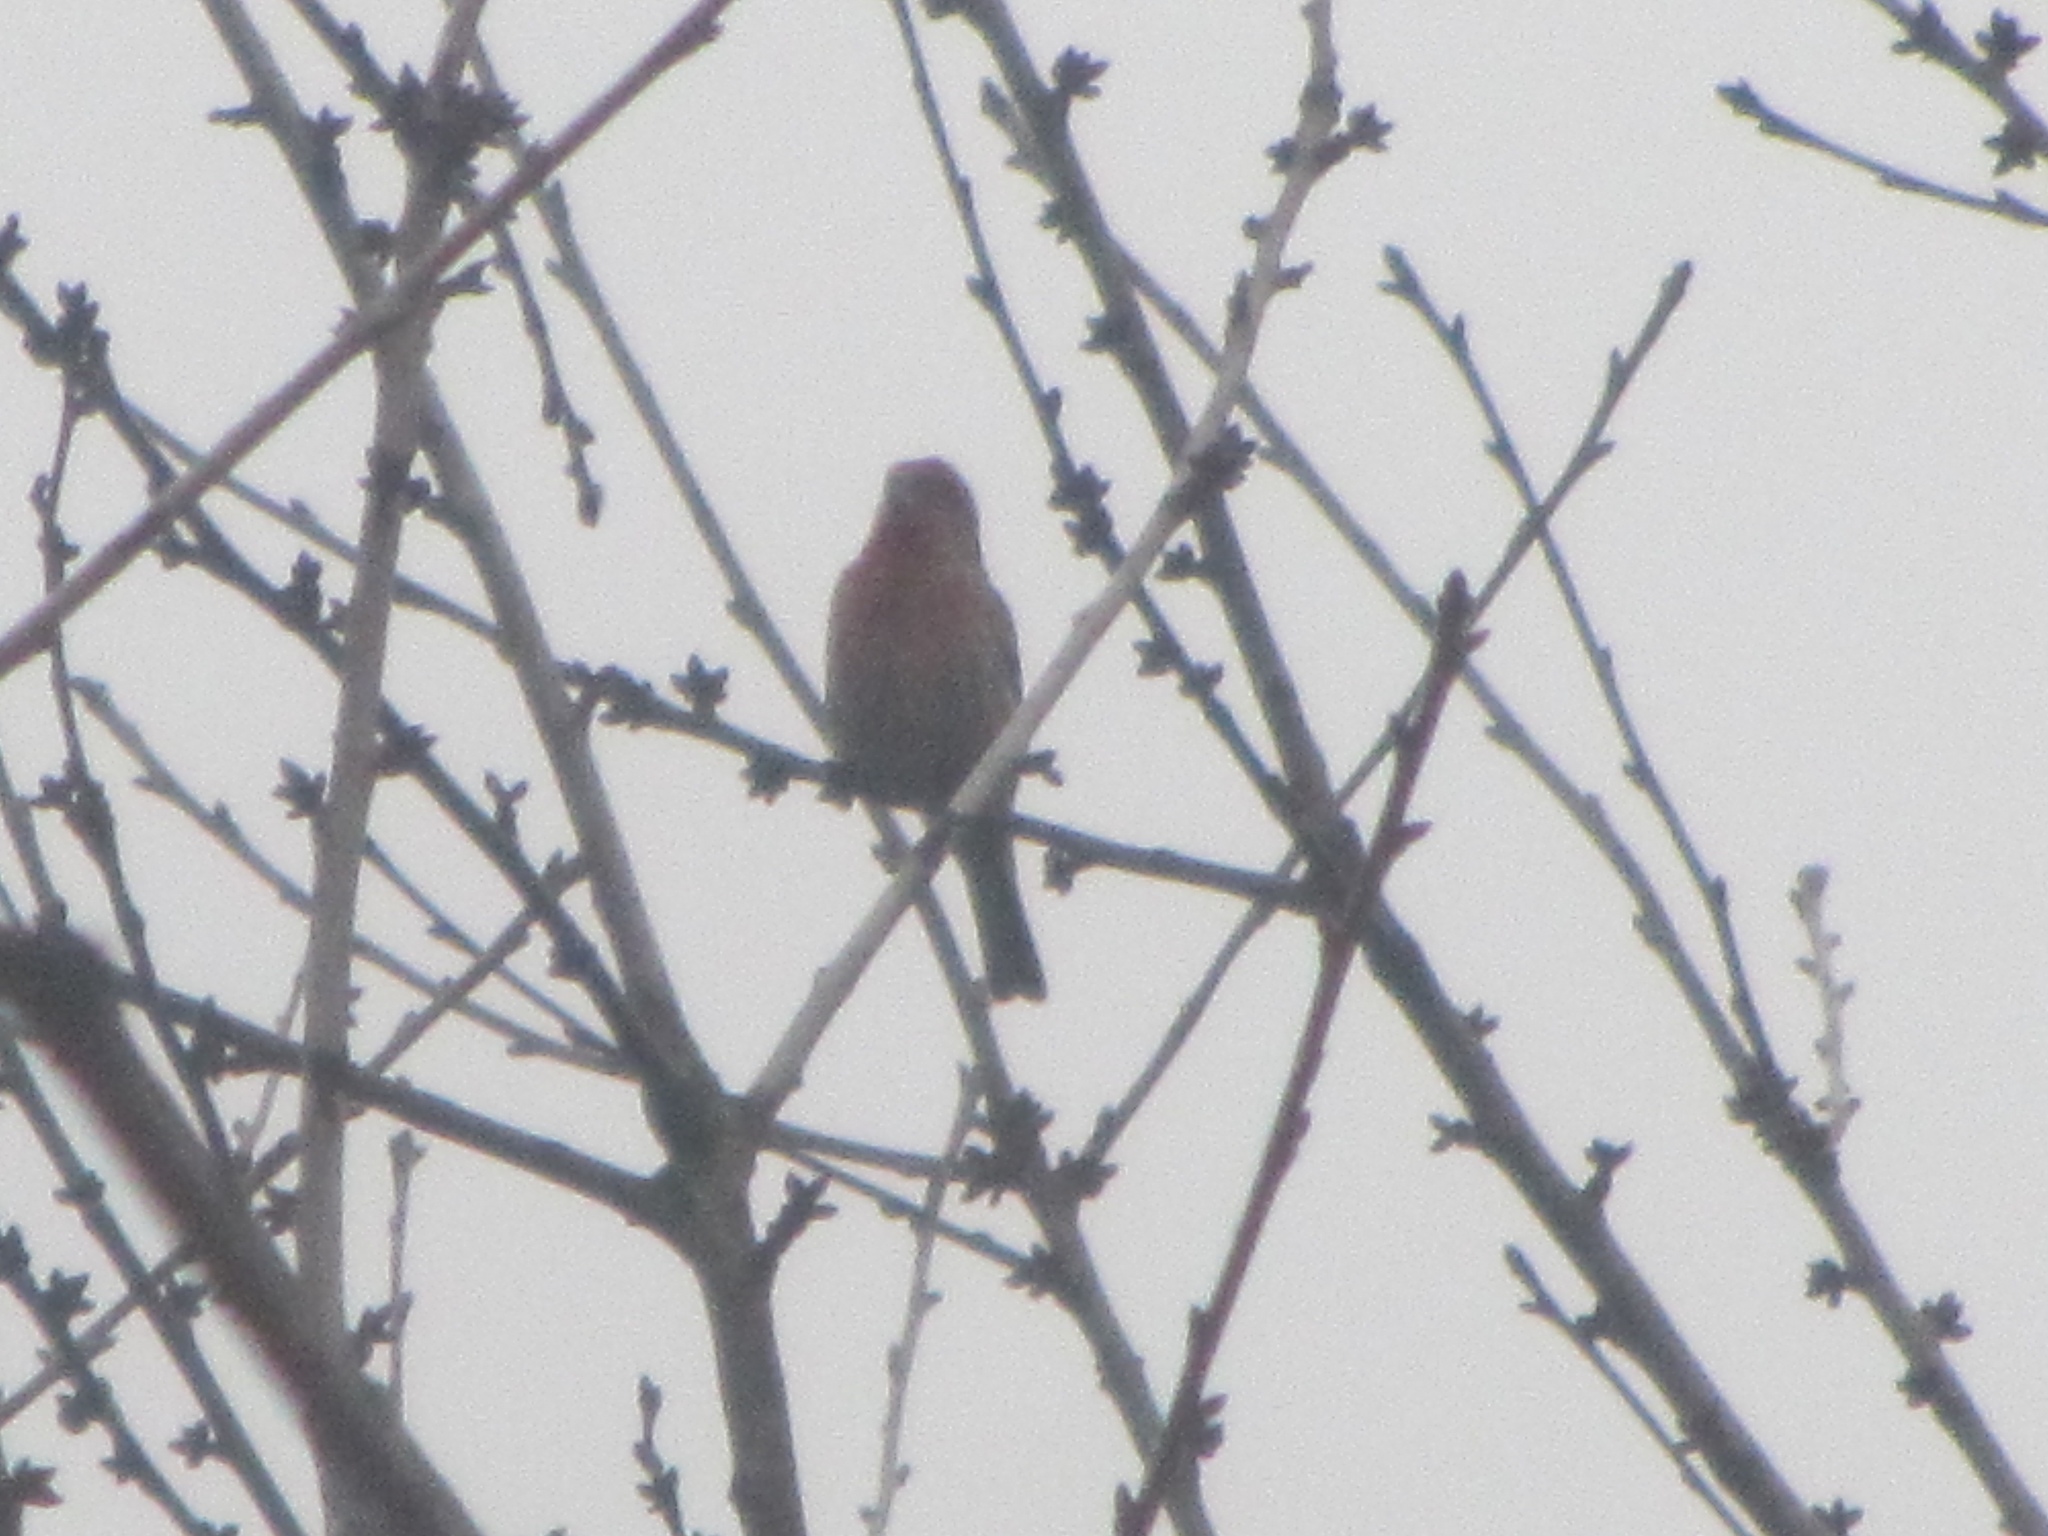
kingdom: Animalia
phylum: Chordata
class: Aves
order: Passeriformes
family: Fringillidae
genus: Haemorhous
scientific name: Haemorhous mexicanus
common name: House finch
